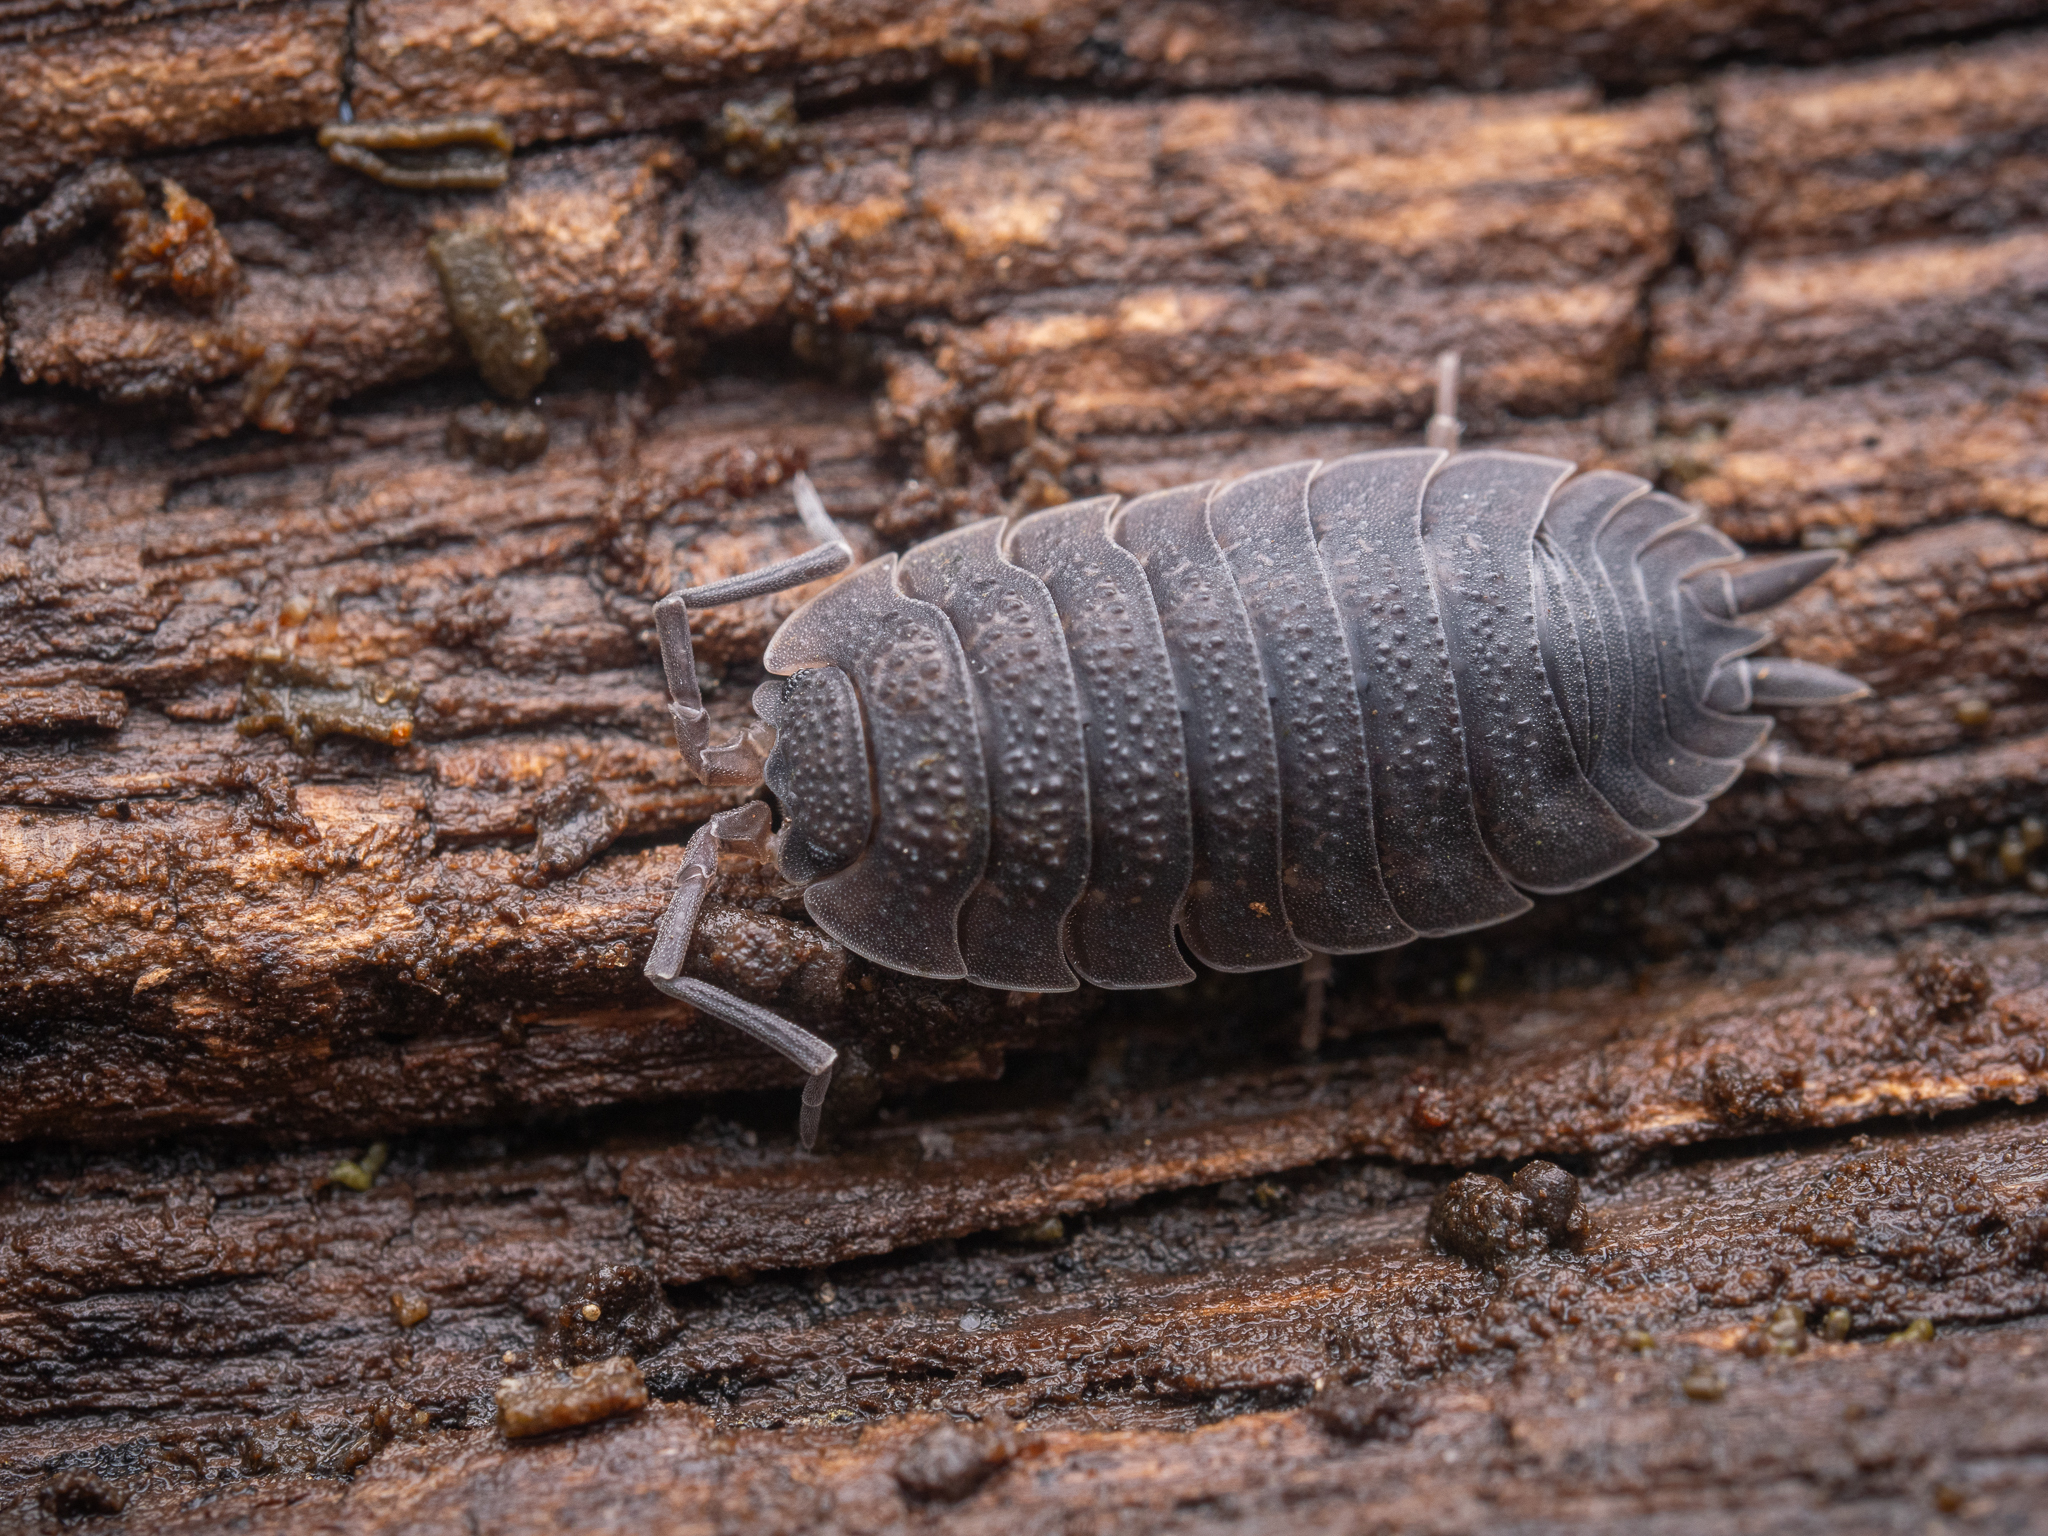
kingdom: Animalia
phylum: Arthropoda
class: Malacostraca
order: Isopoda
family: Porcellionidae
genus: Porcellio
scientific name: Porcellio scaber
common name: Common rough woodlouse
